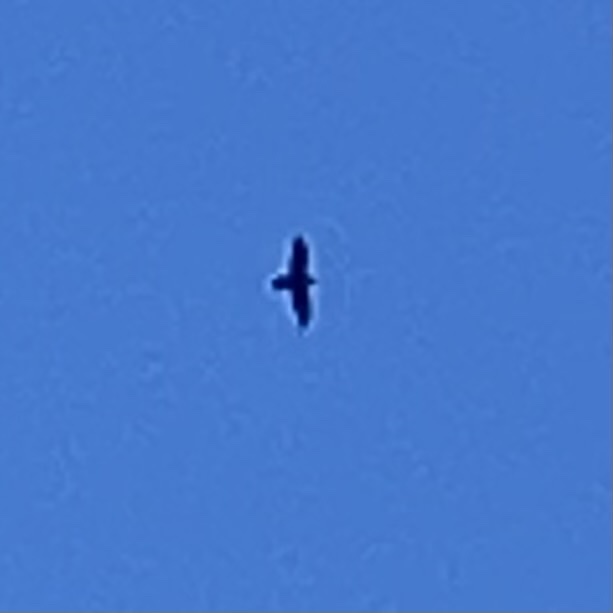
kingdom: Animalia
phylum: Chordata
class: Aves
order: Passeriformes
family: Corvidae
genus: Corvus
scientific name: Corvus corax
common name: Common raven
